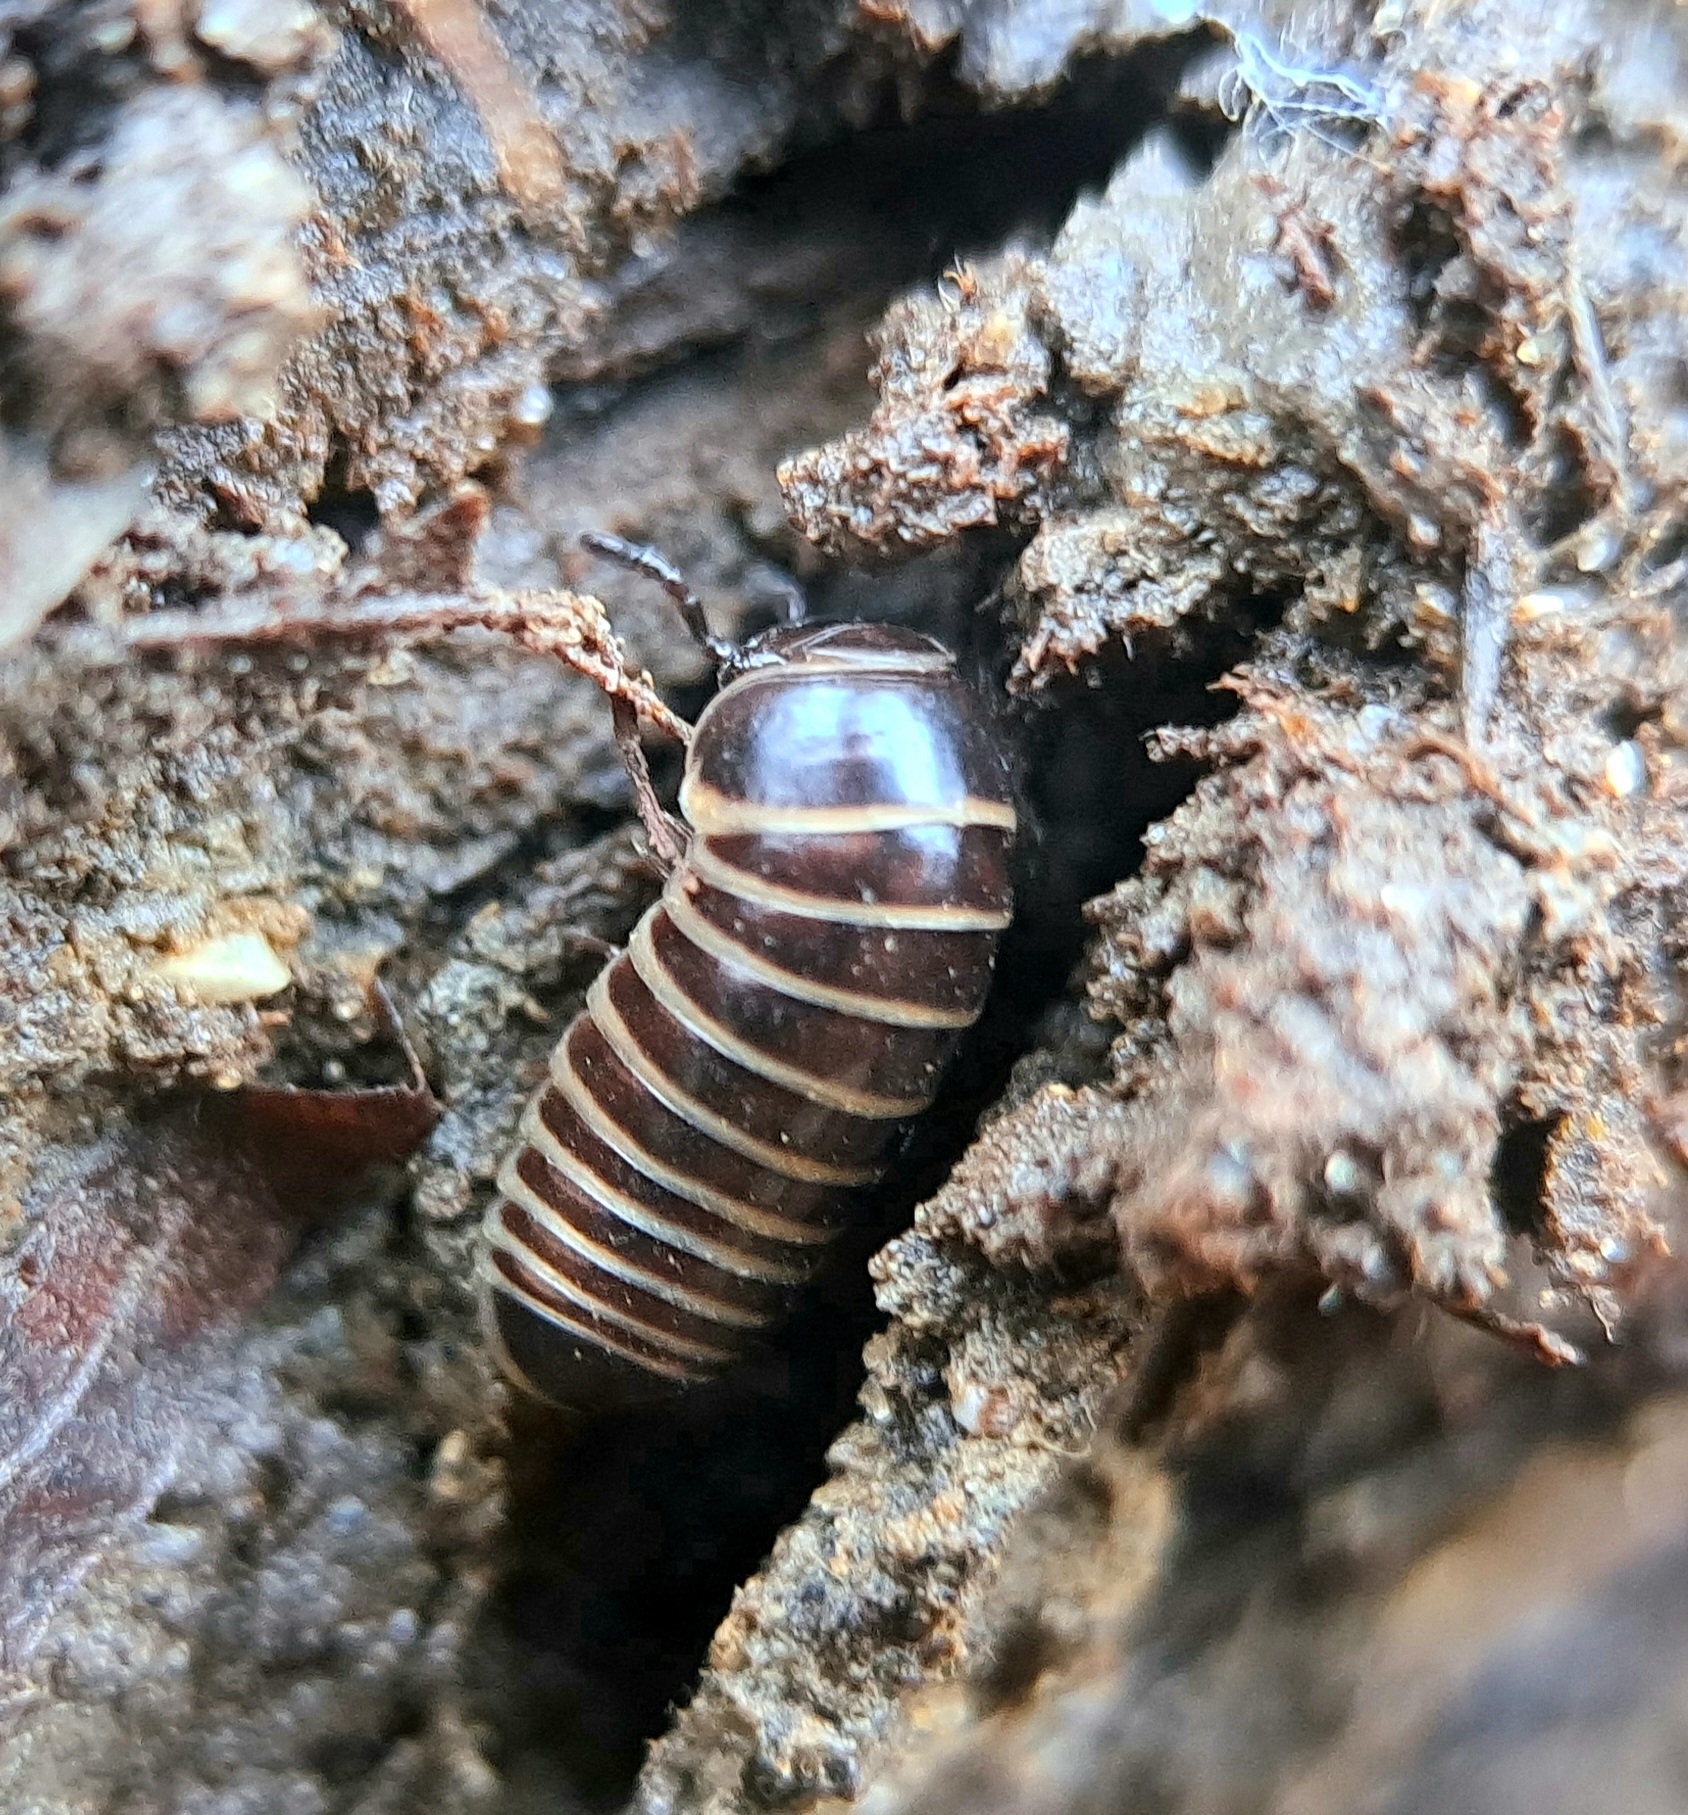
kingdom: Animalia
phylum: Arthropoda
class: Diplopoda
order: Glomerida
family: Glomeridae
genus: Glomeris
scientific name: Glomeris marginata
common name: Bordered pill millipede
